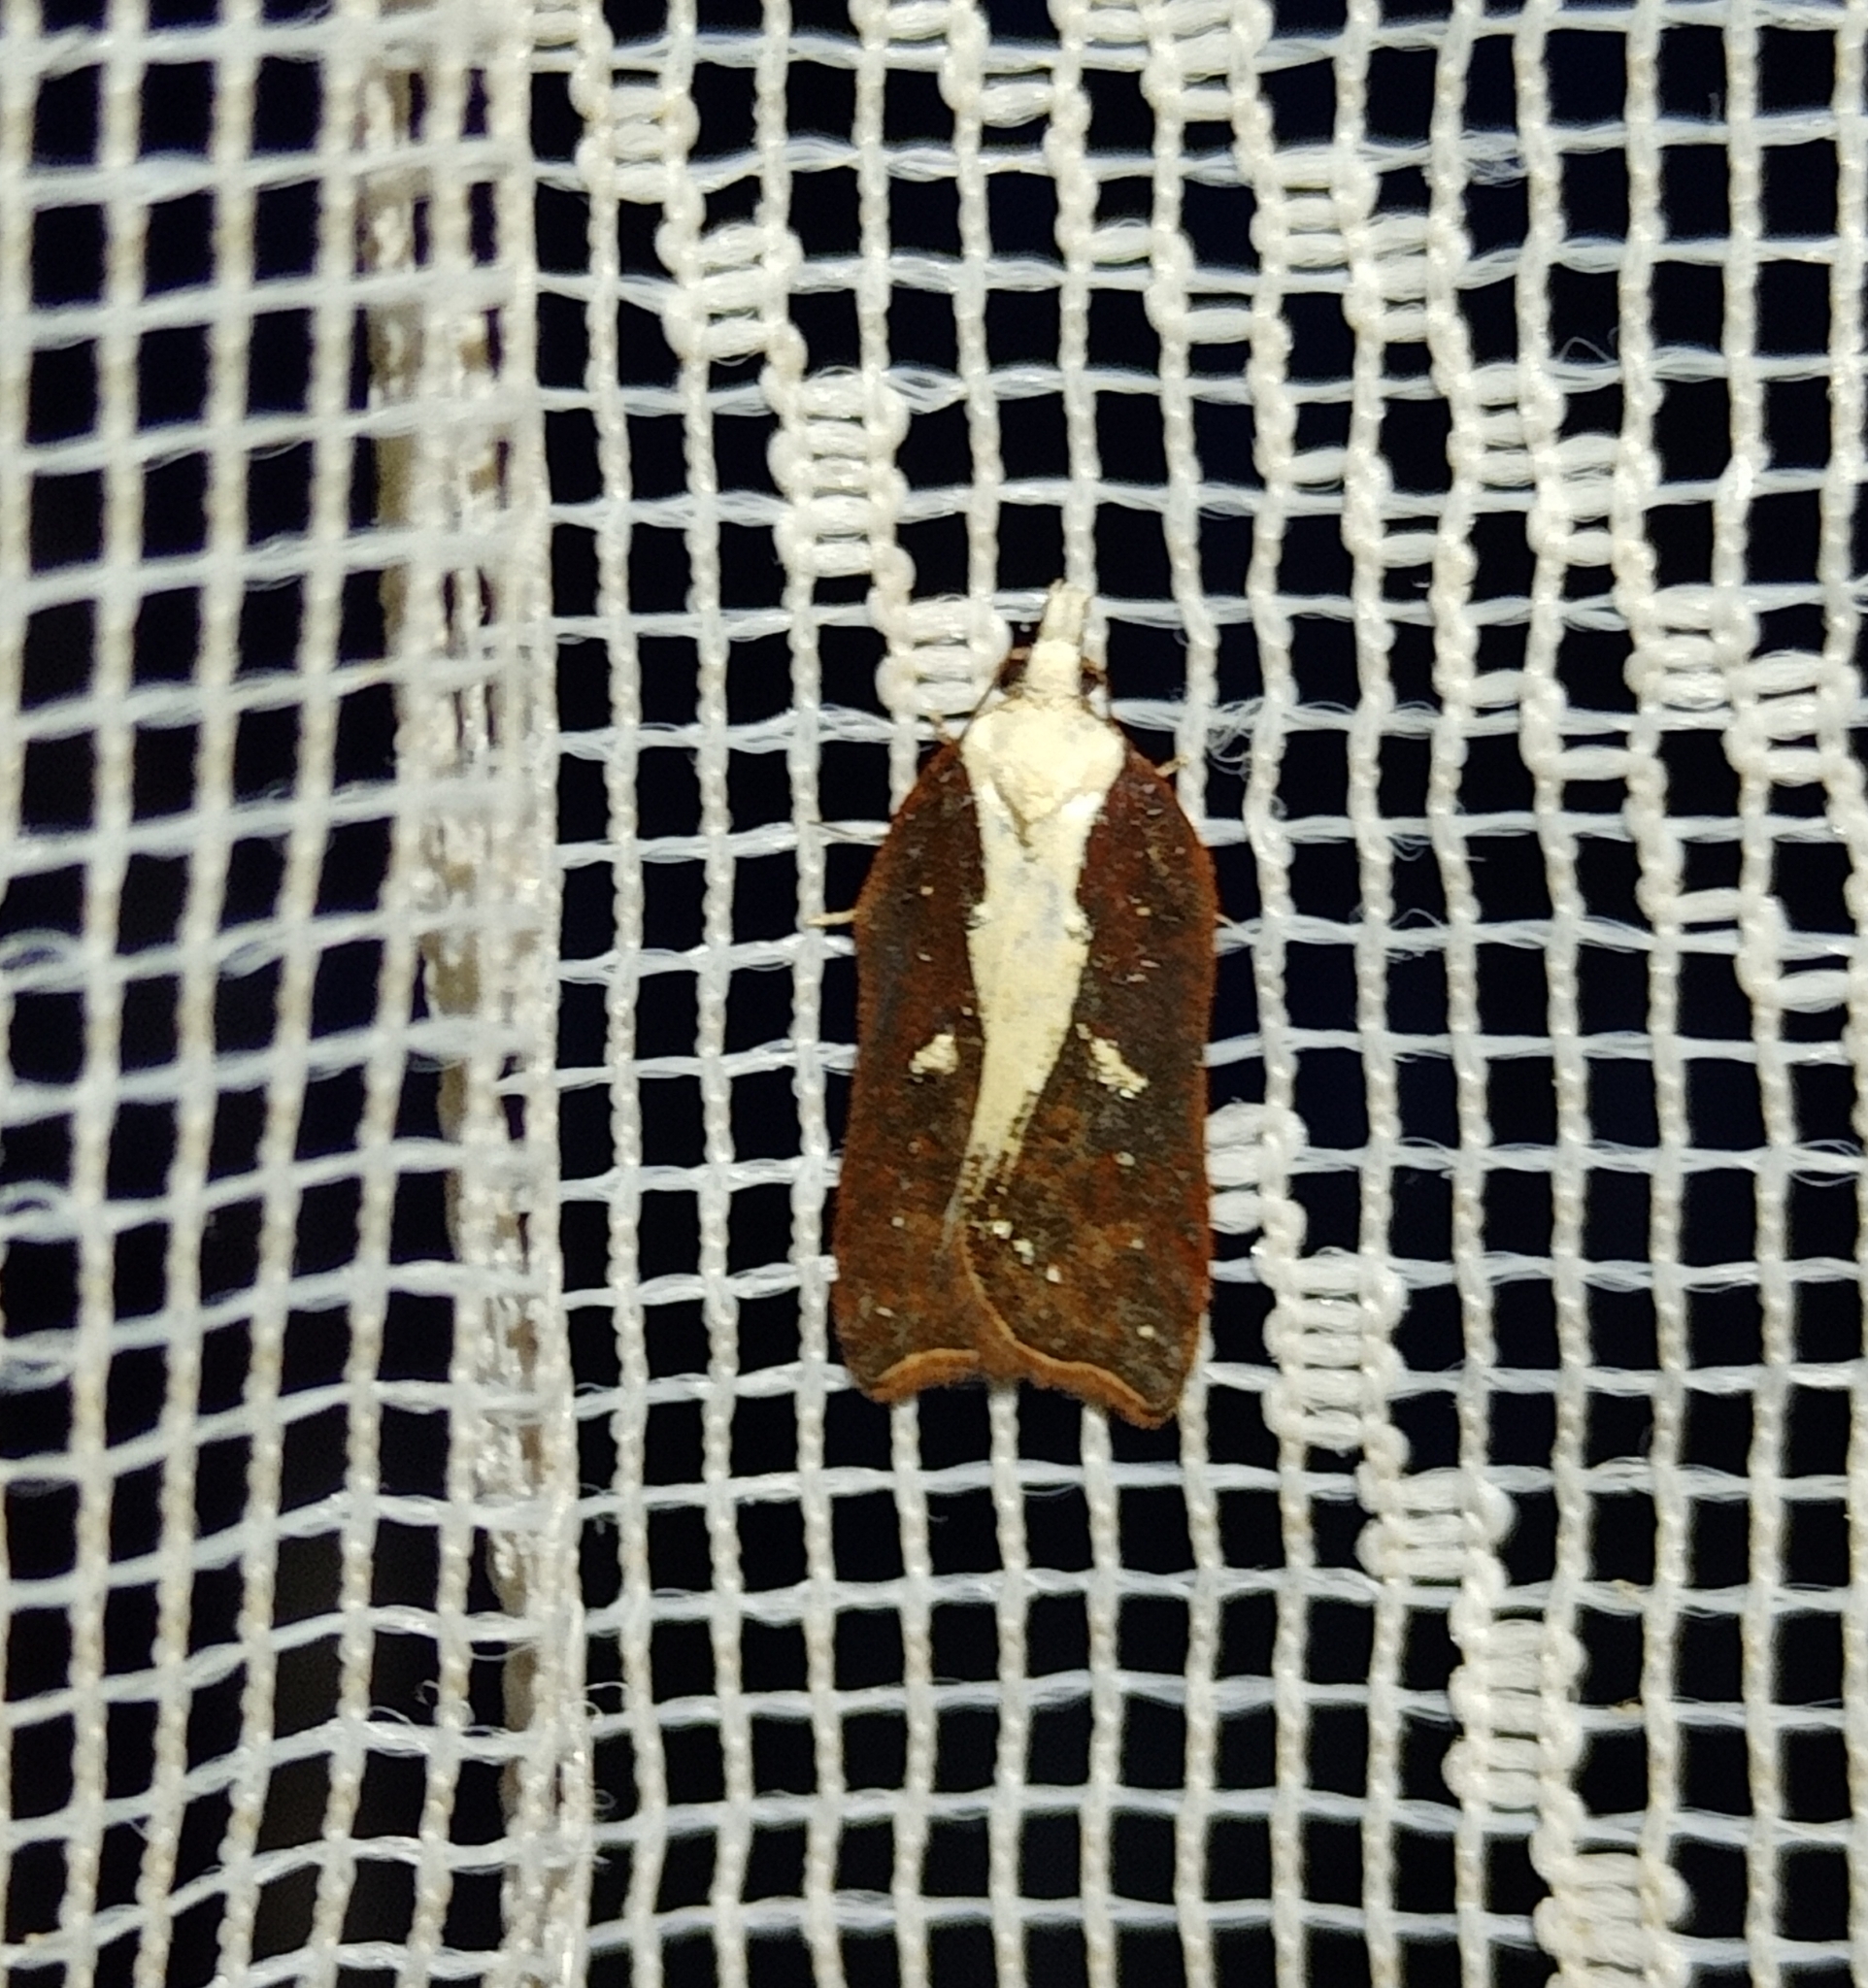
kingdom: Animalia
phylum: Arthropoda
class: Insecta
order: Lepidoptera
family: Tortricidae
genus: Acleris
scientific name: Acleris cristana
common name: Tufted button
